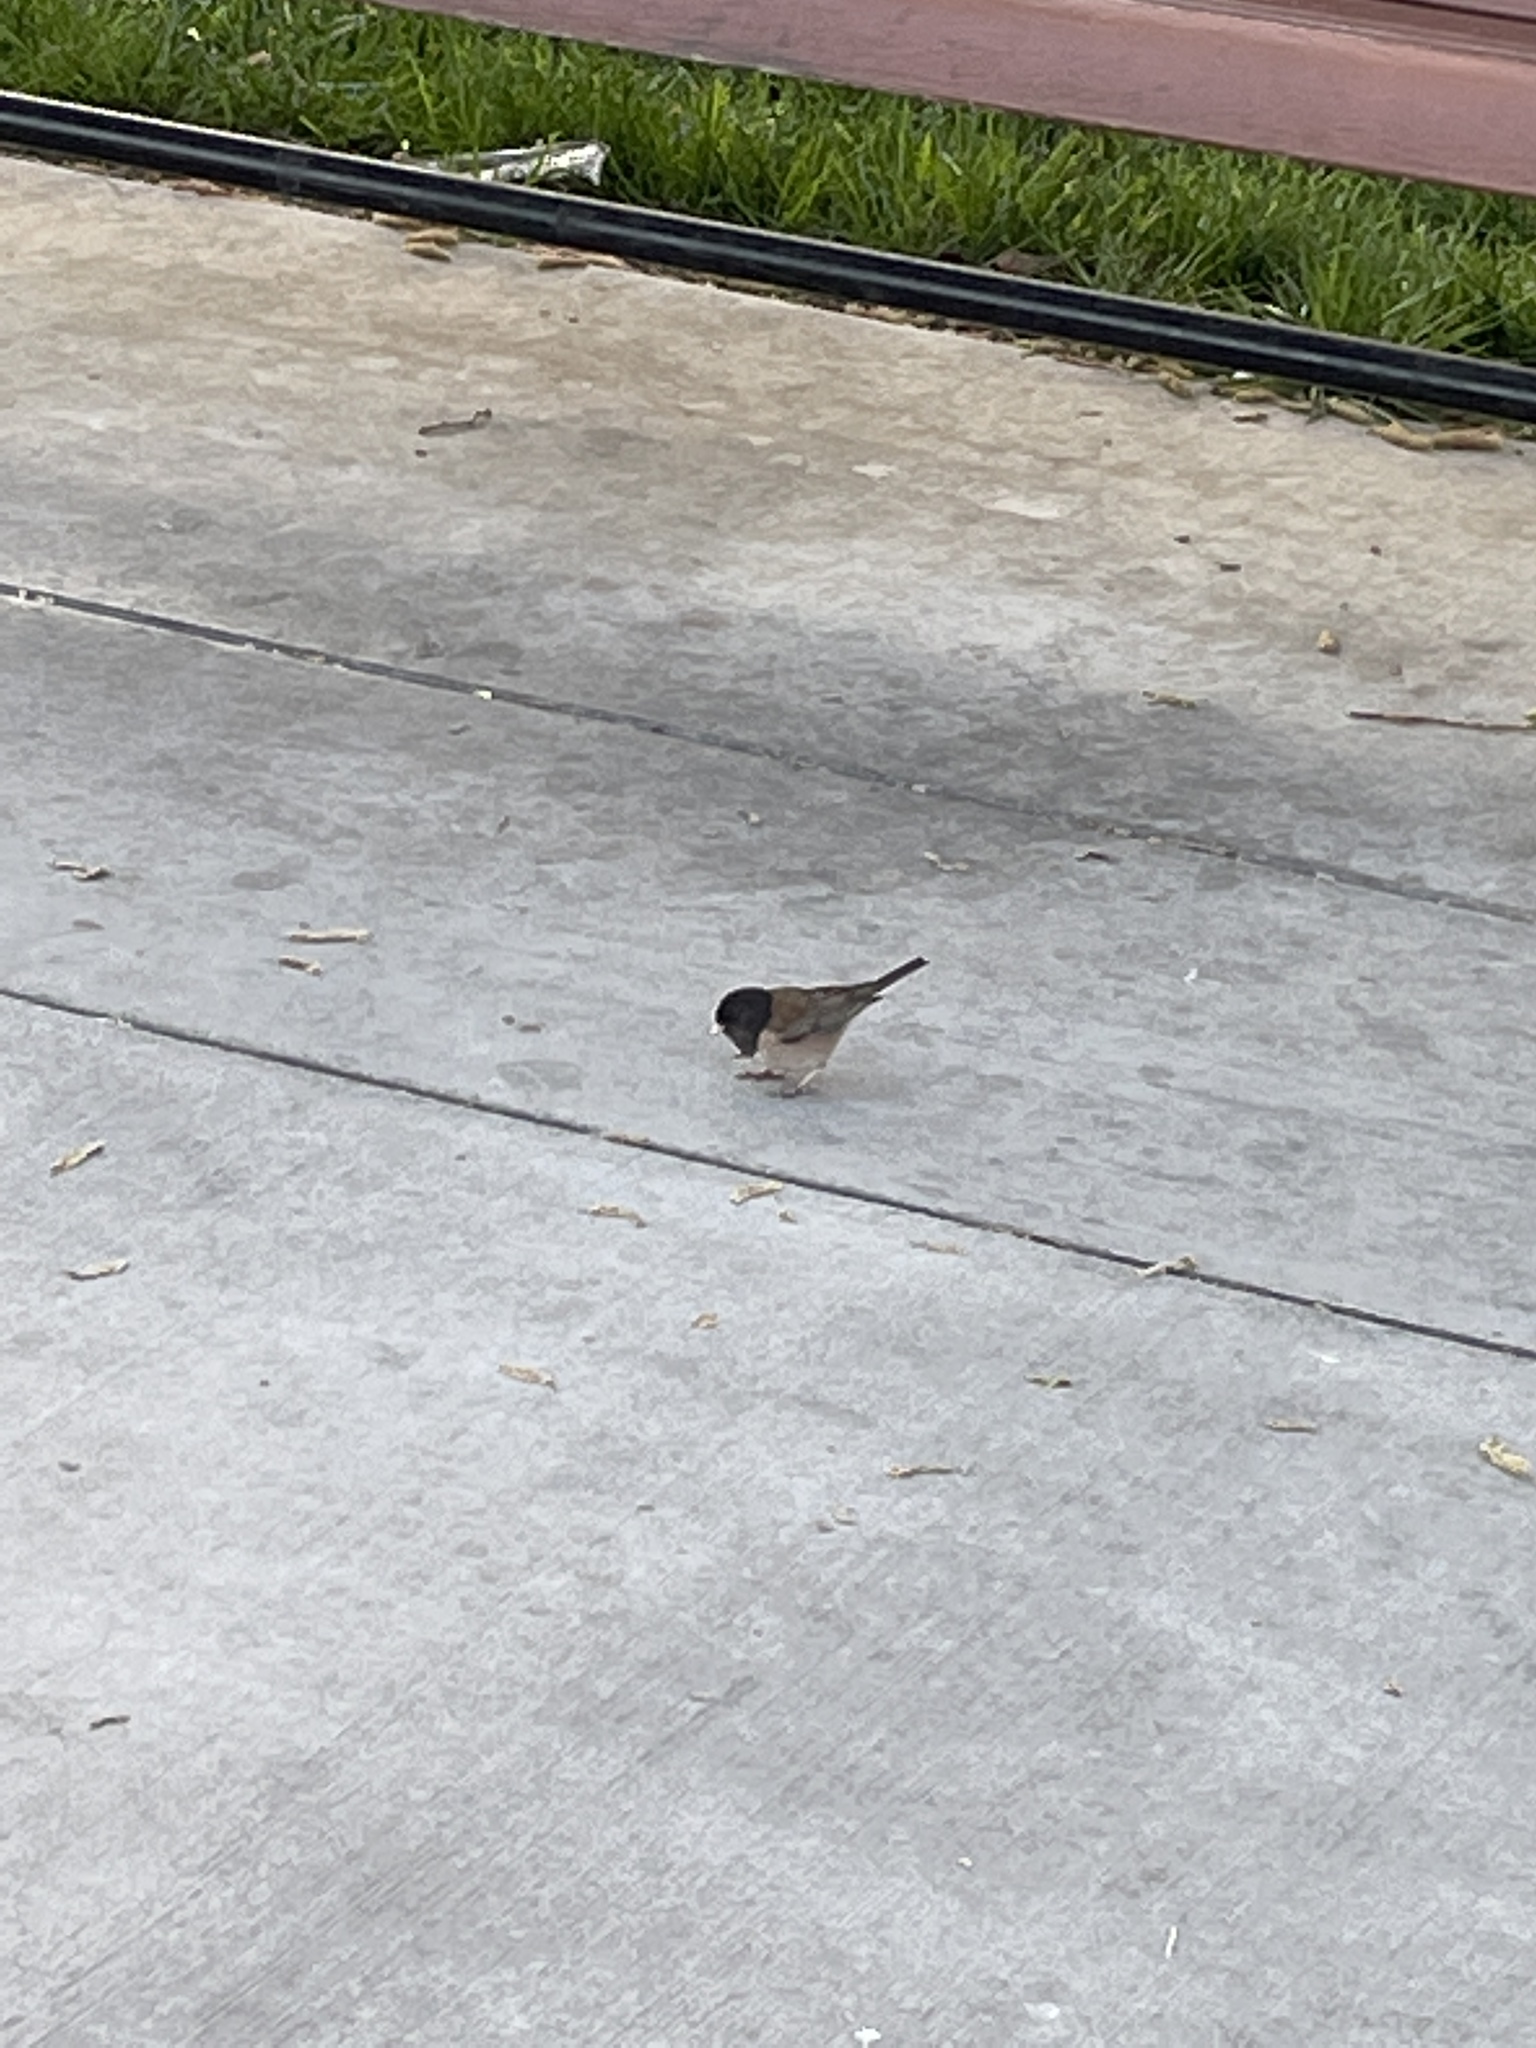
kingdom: Animalia
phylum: Chordata
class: Aves
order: Passeriformes
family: Passerellidae
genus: Junco
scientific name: Junco hyemalis
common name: Dark-eyed junco
